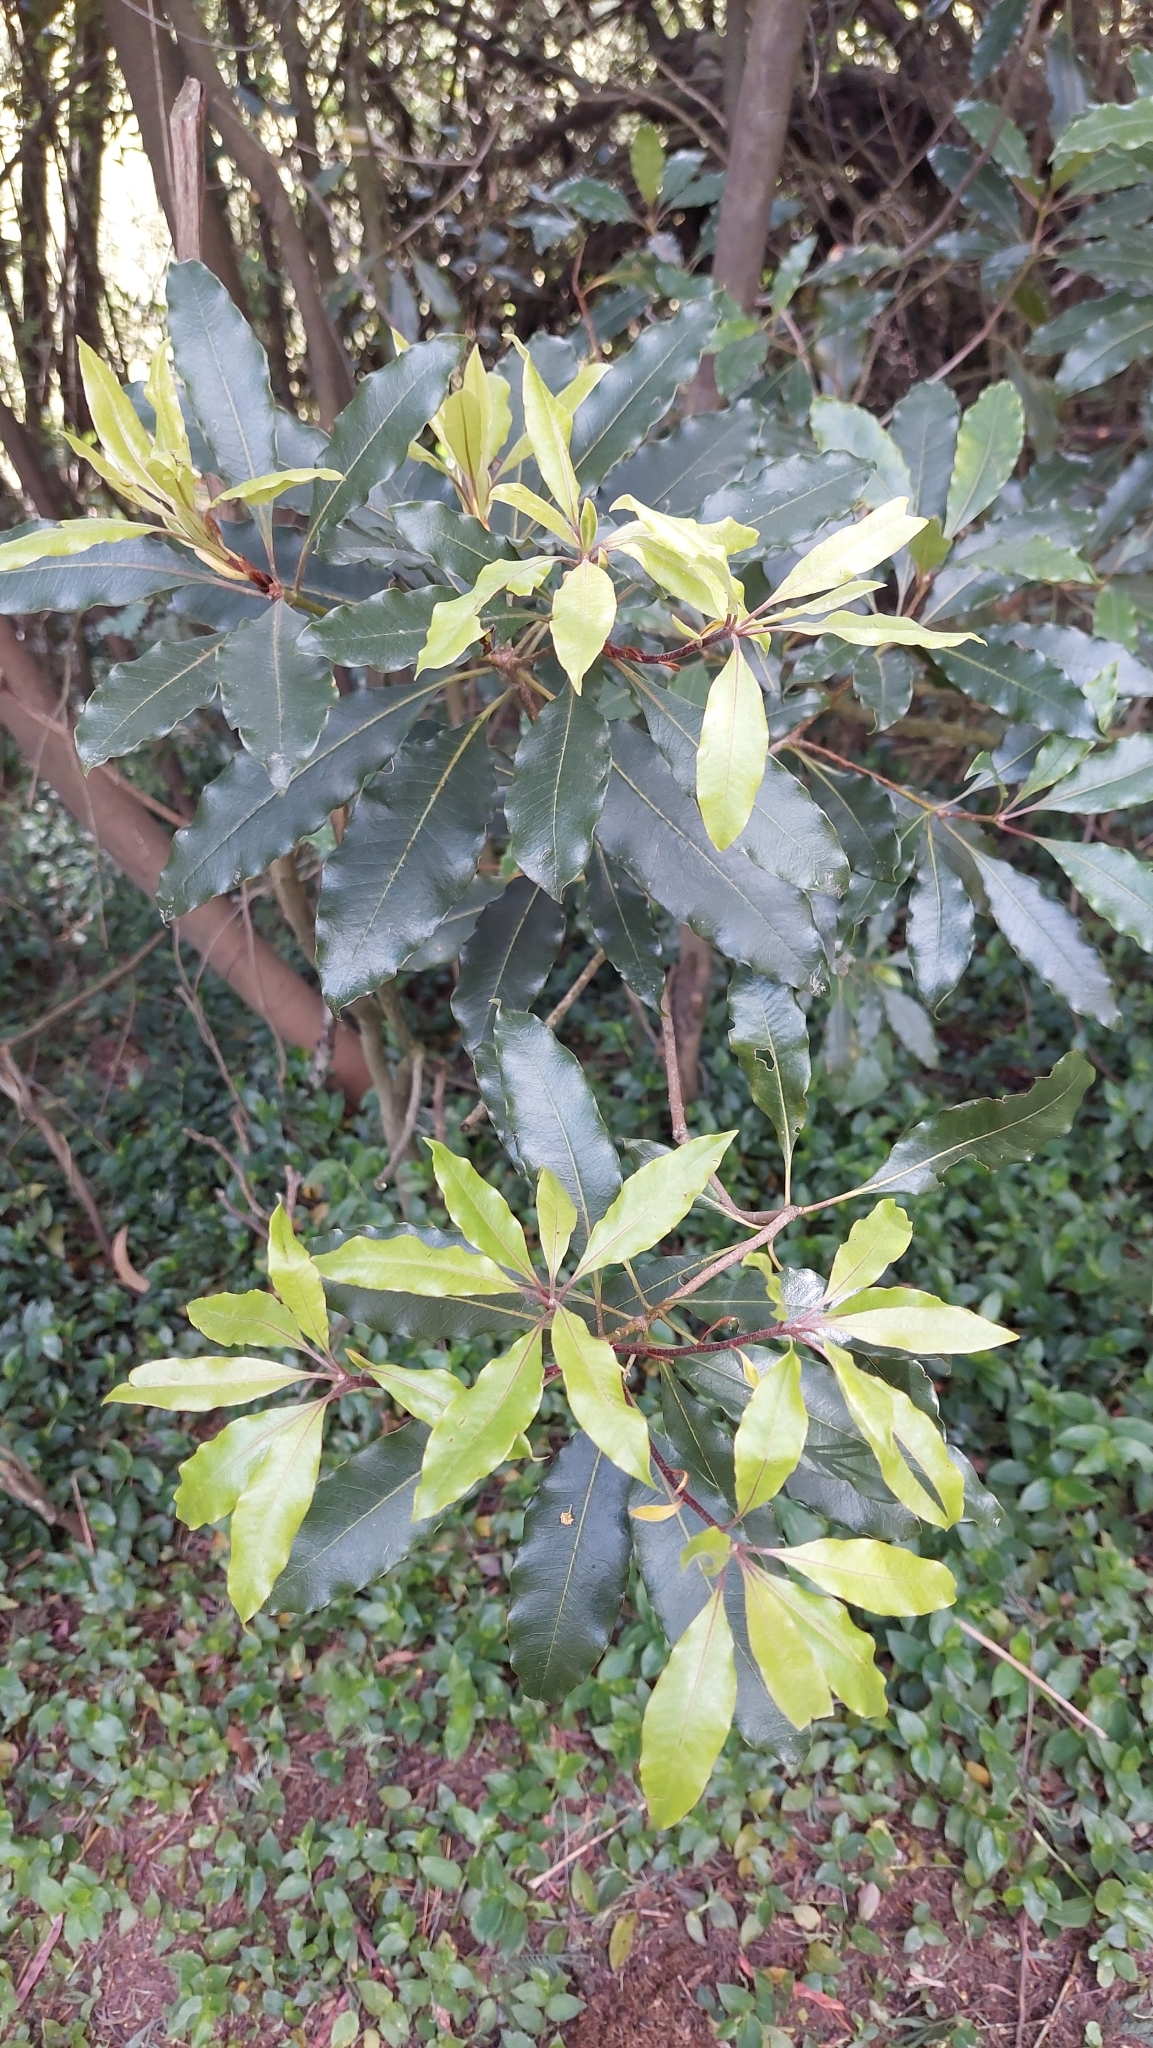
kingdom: Plantae
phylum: Tracheophyta
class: Magnoliopsida
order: Apiales
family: Pittosporaceae
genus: Pittosporum
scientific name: Pittosporum undulatum
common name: Australian cheesewood
